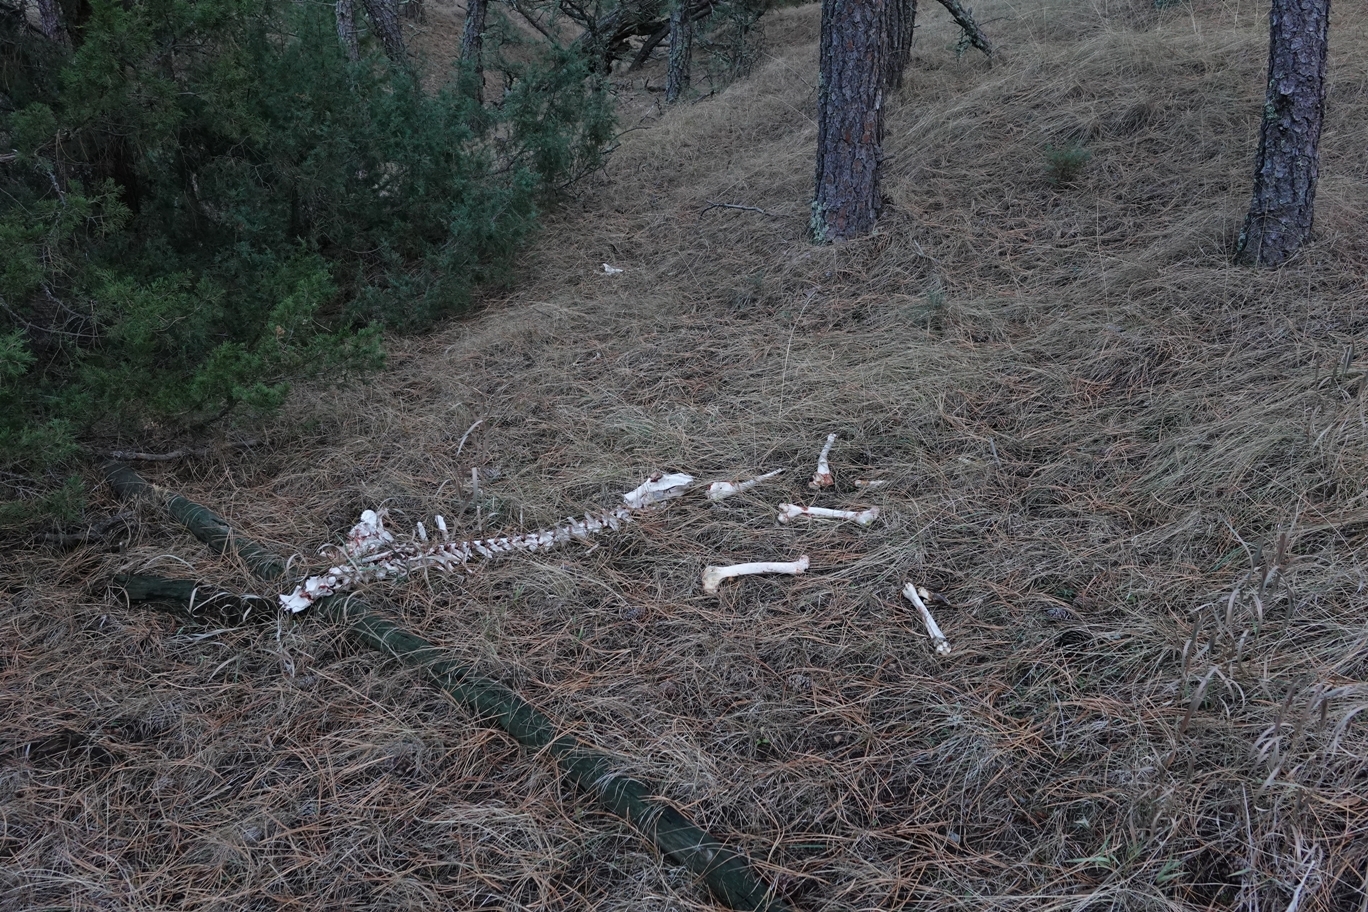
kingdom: Animalia
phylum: Chordata
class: Mammalia
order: Artiodactyla
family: Cervidae
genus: Odocoileus
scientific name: Odocoileus virginianus
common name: White-tailed deer
